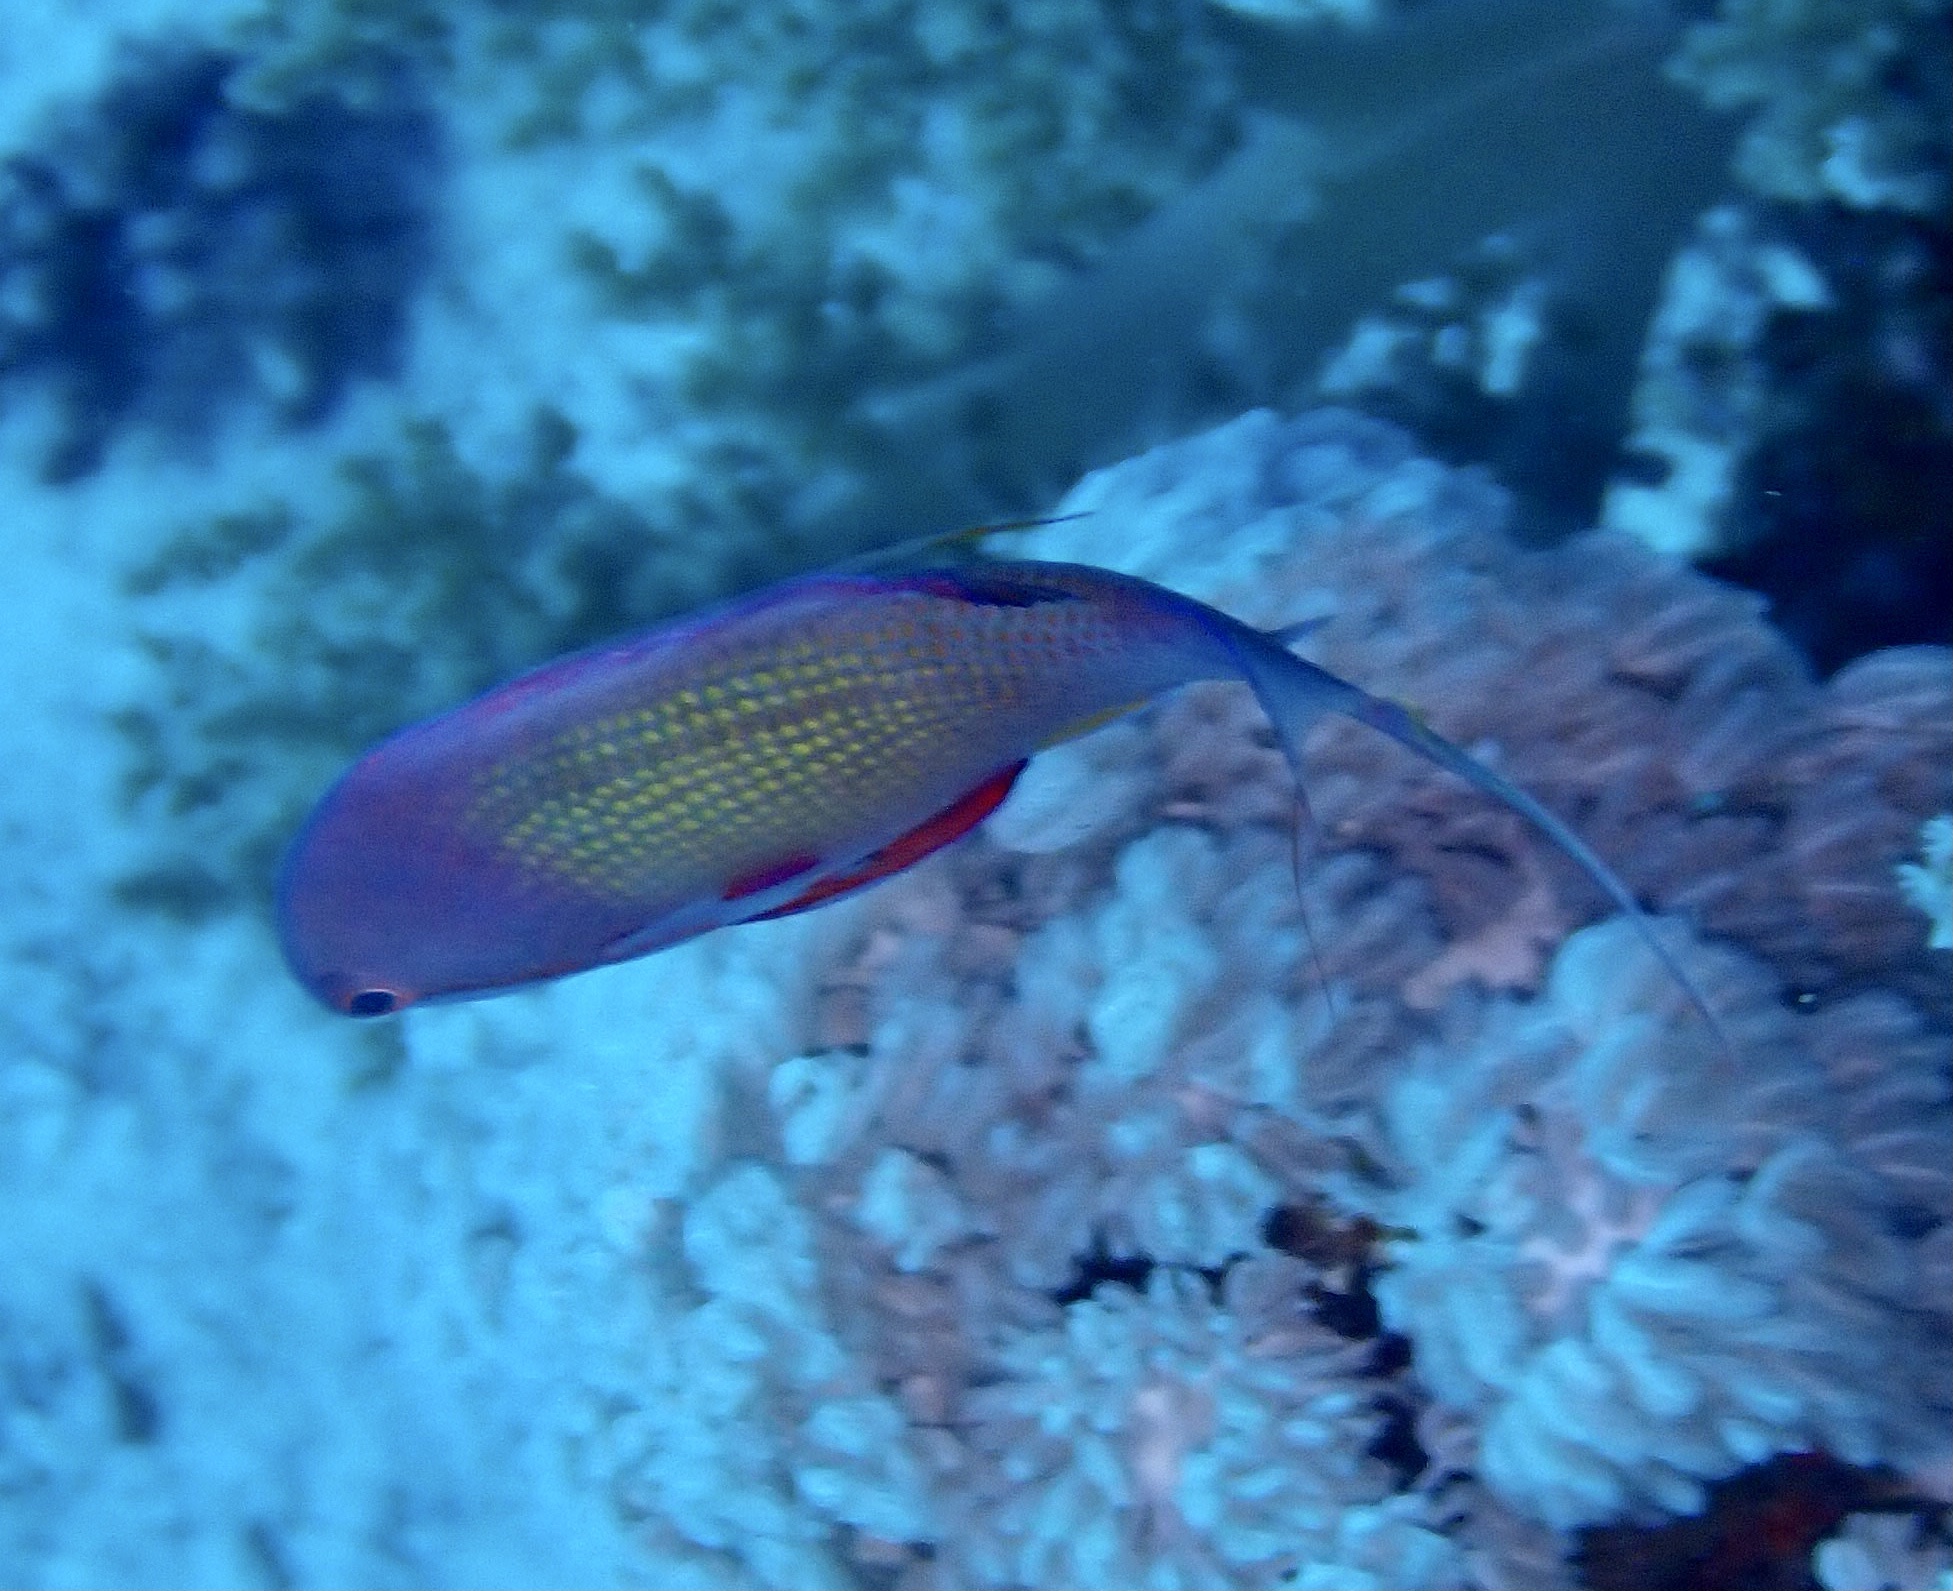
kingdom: Animalia
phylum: Chordata
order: Perciformes
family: Serranidae
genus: Pseudanthias
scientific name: Pseudanthias squamipinnis
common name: Scalefin anthias
